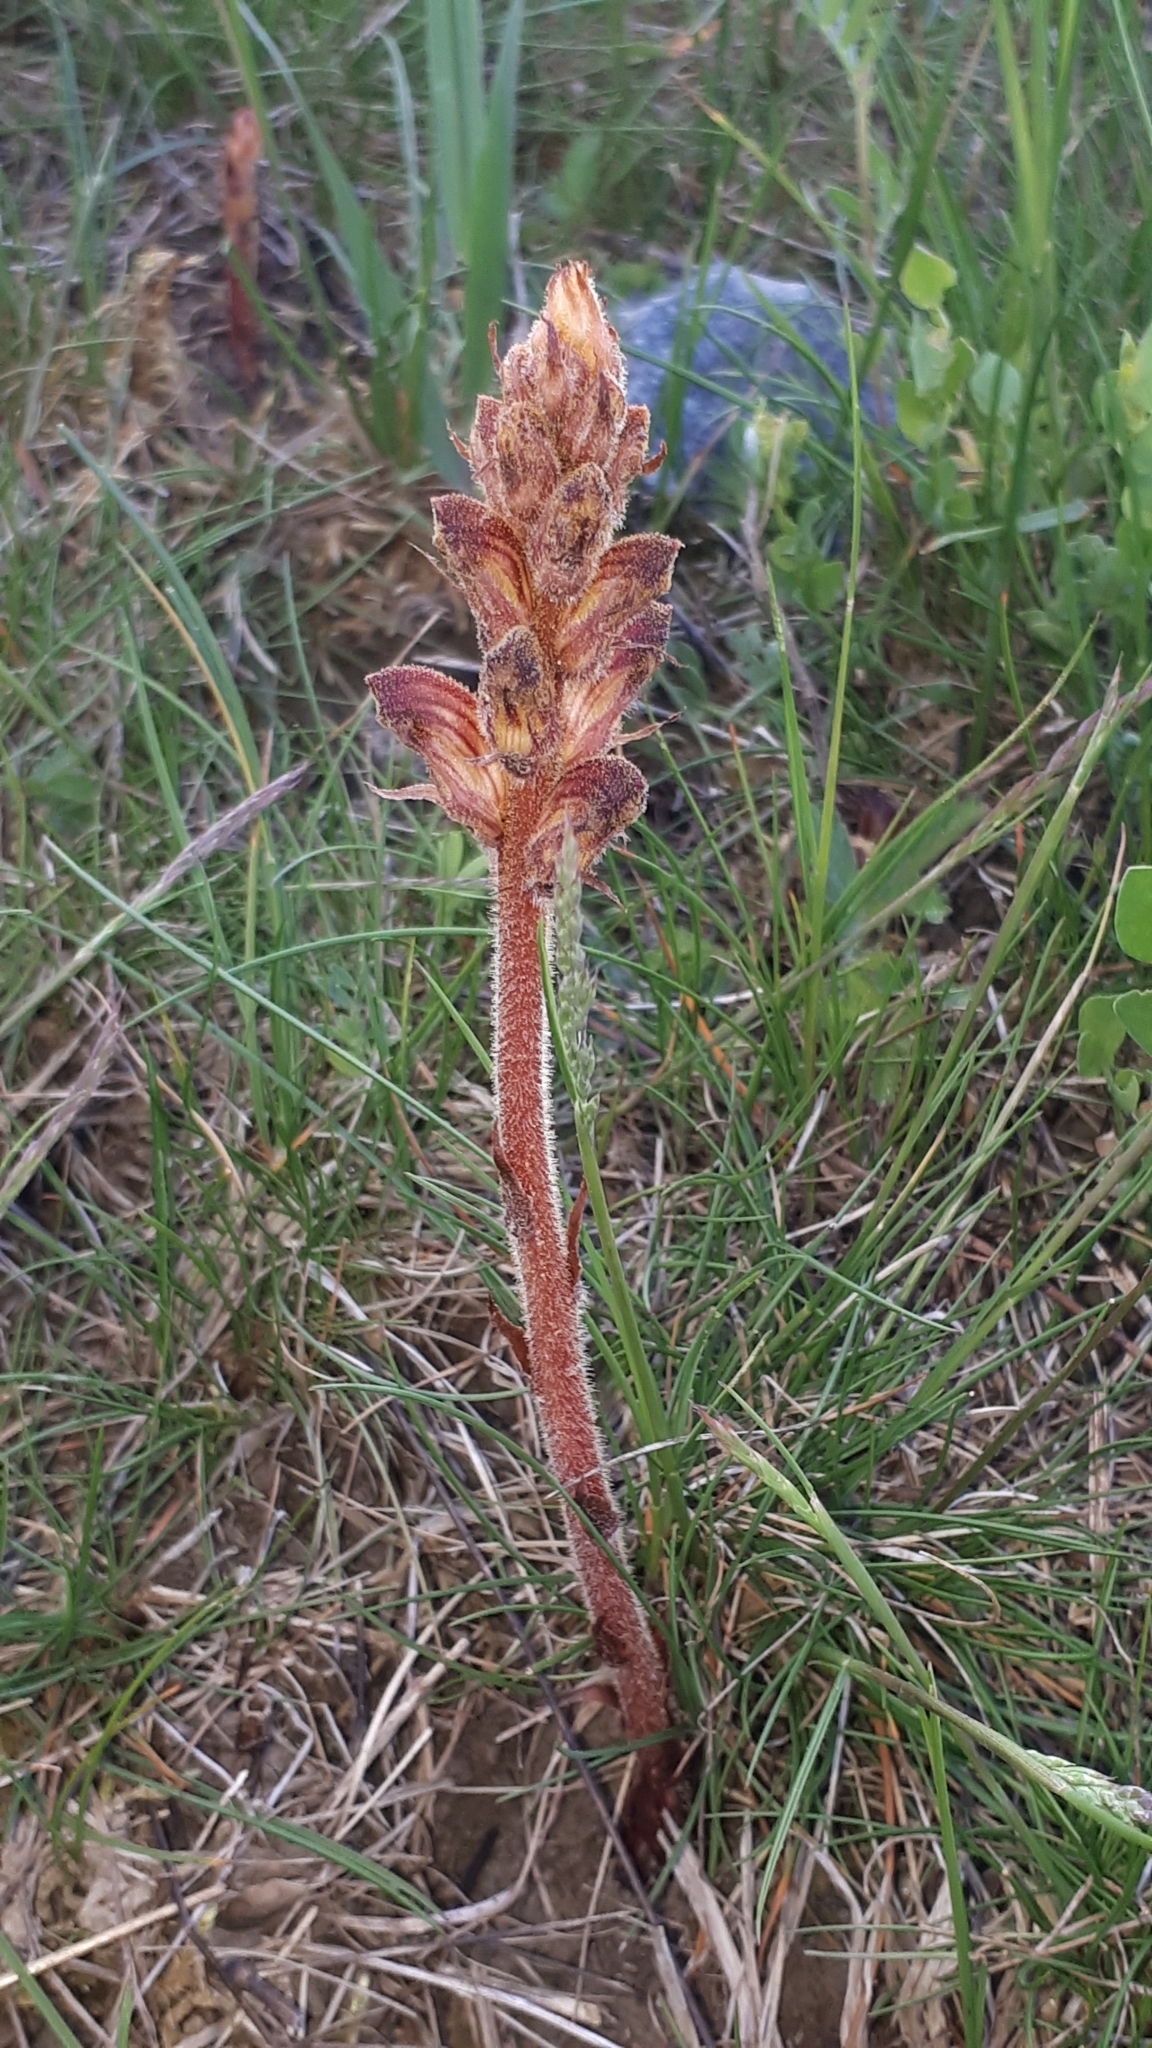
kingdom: Plantae
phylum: Tracheophyta
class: Magnoliopsida
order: Lamiales
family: Orobanchaceae
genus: Orobanche
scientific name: Orobanche gracilis
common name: Slender broomrape
